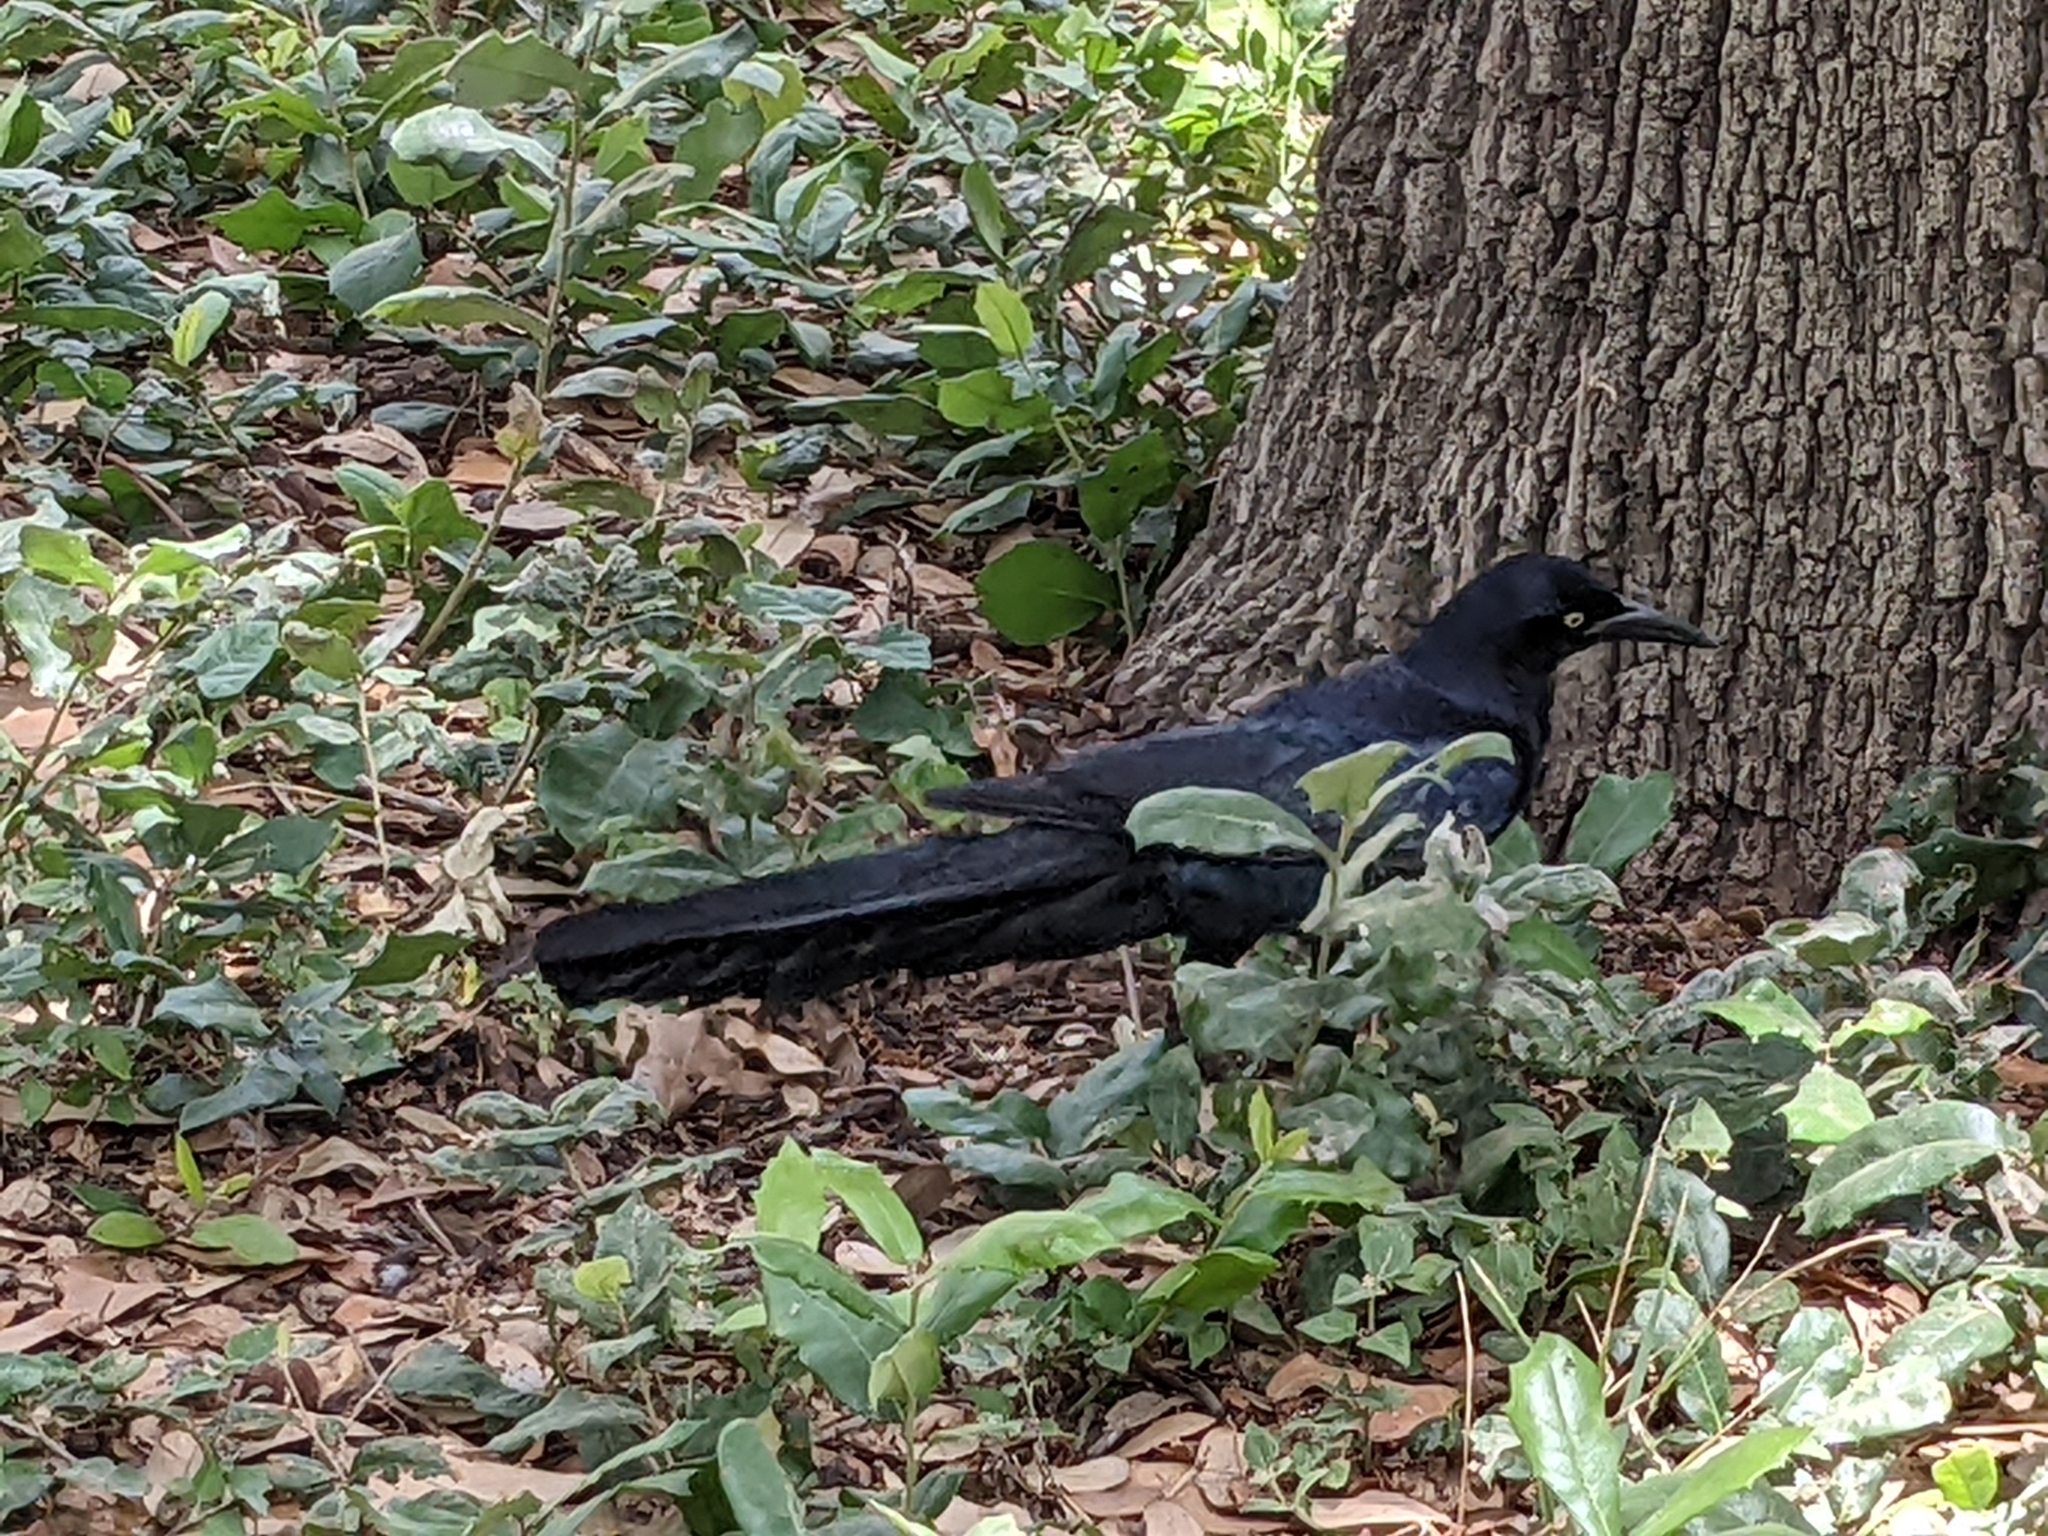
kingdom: Animalia
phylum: Chordata
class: Aves
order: Passeriformes
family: Icteridae
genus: Quiscalus
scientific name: Quiscalus mexicanus
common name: Great-tailed grackle
